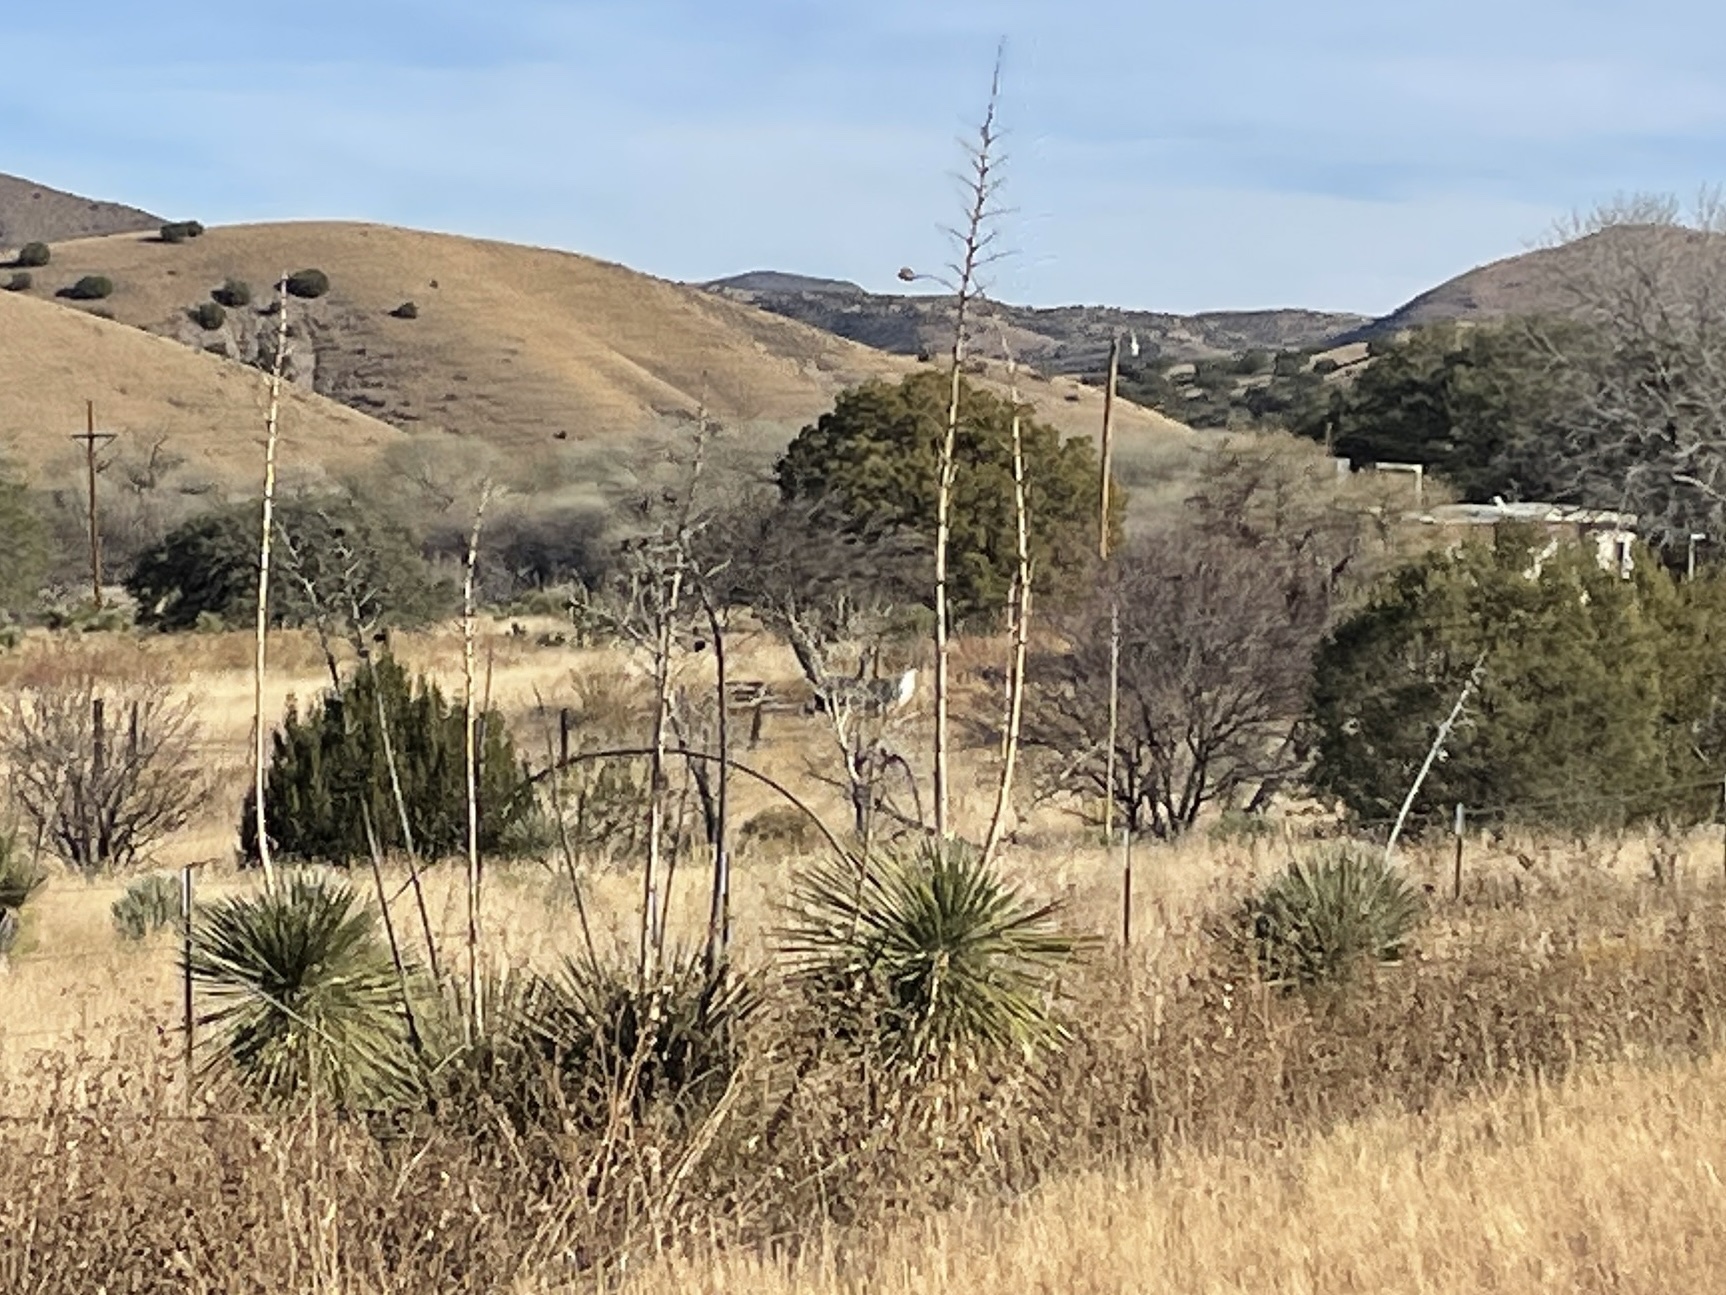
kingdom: Plantae
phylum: Tracheophyta
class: Liliopsida
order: Asparagales
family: Asparagaceae
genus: Yucca
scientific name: Yucca elata
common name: Palmella
